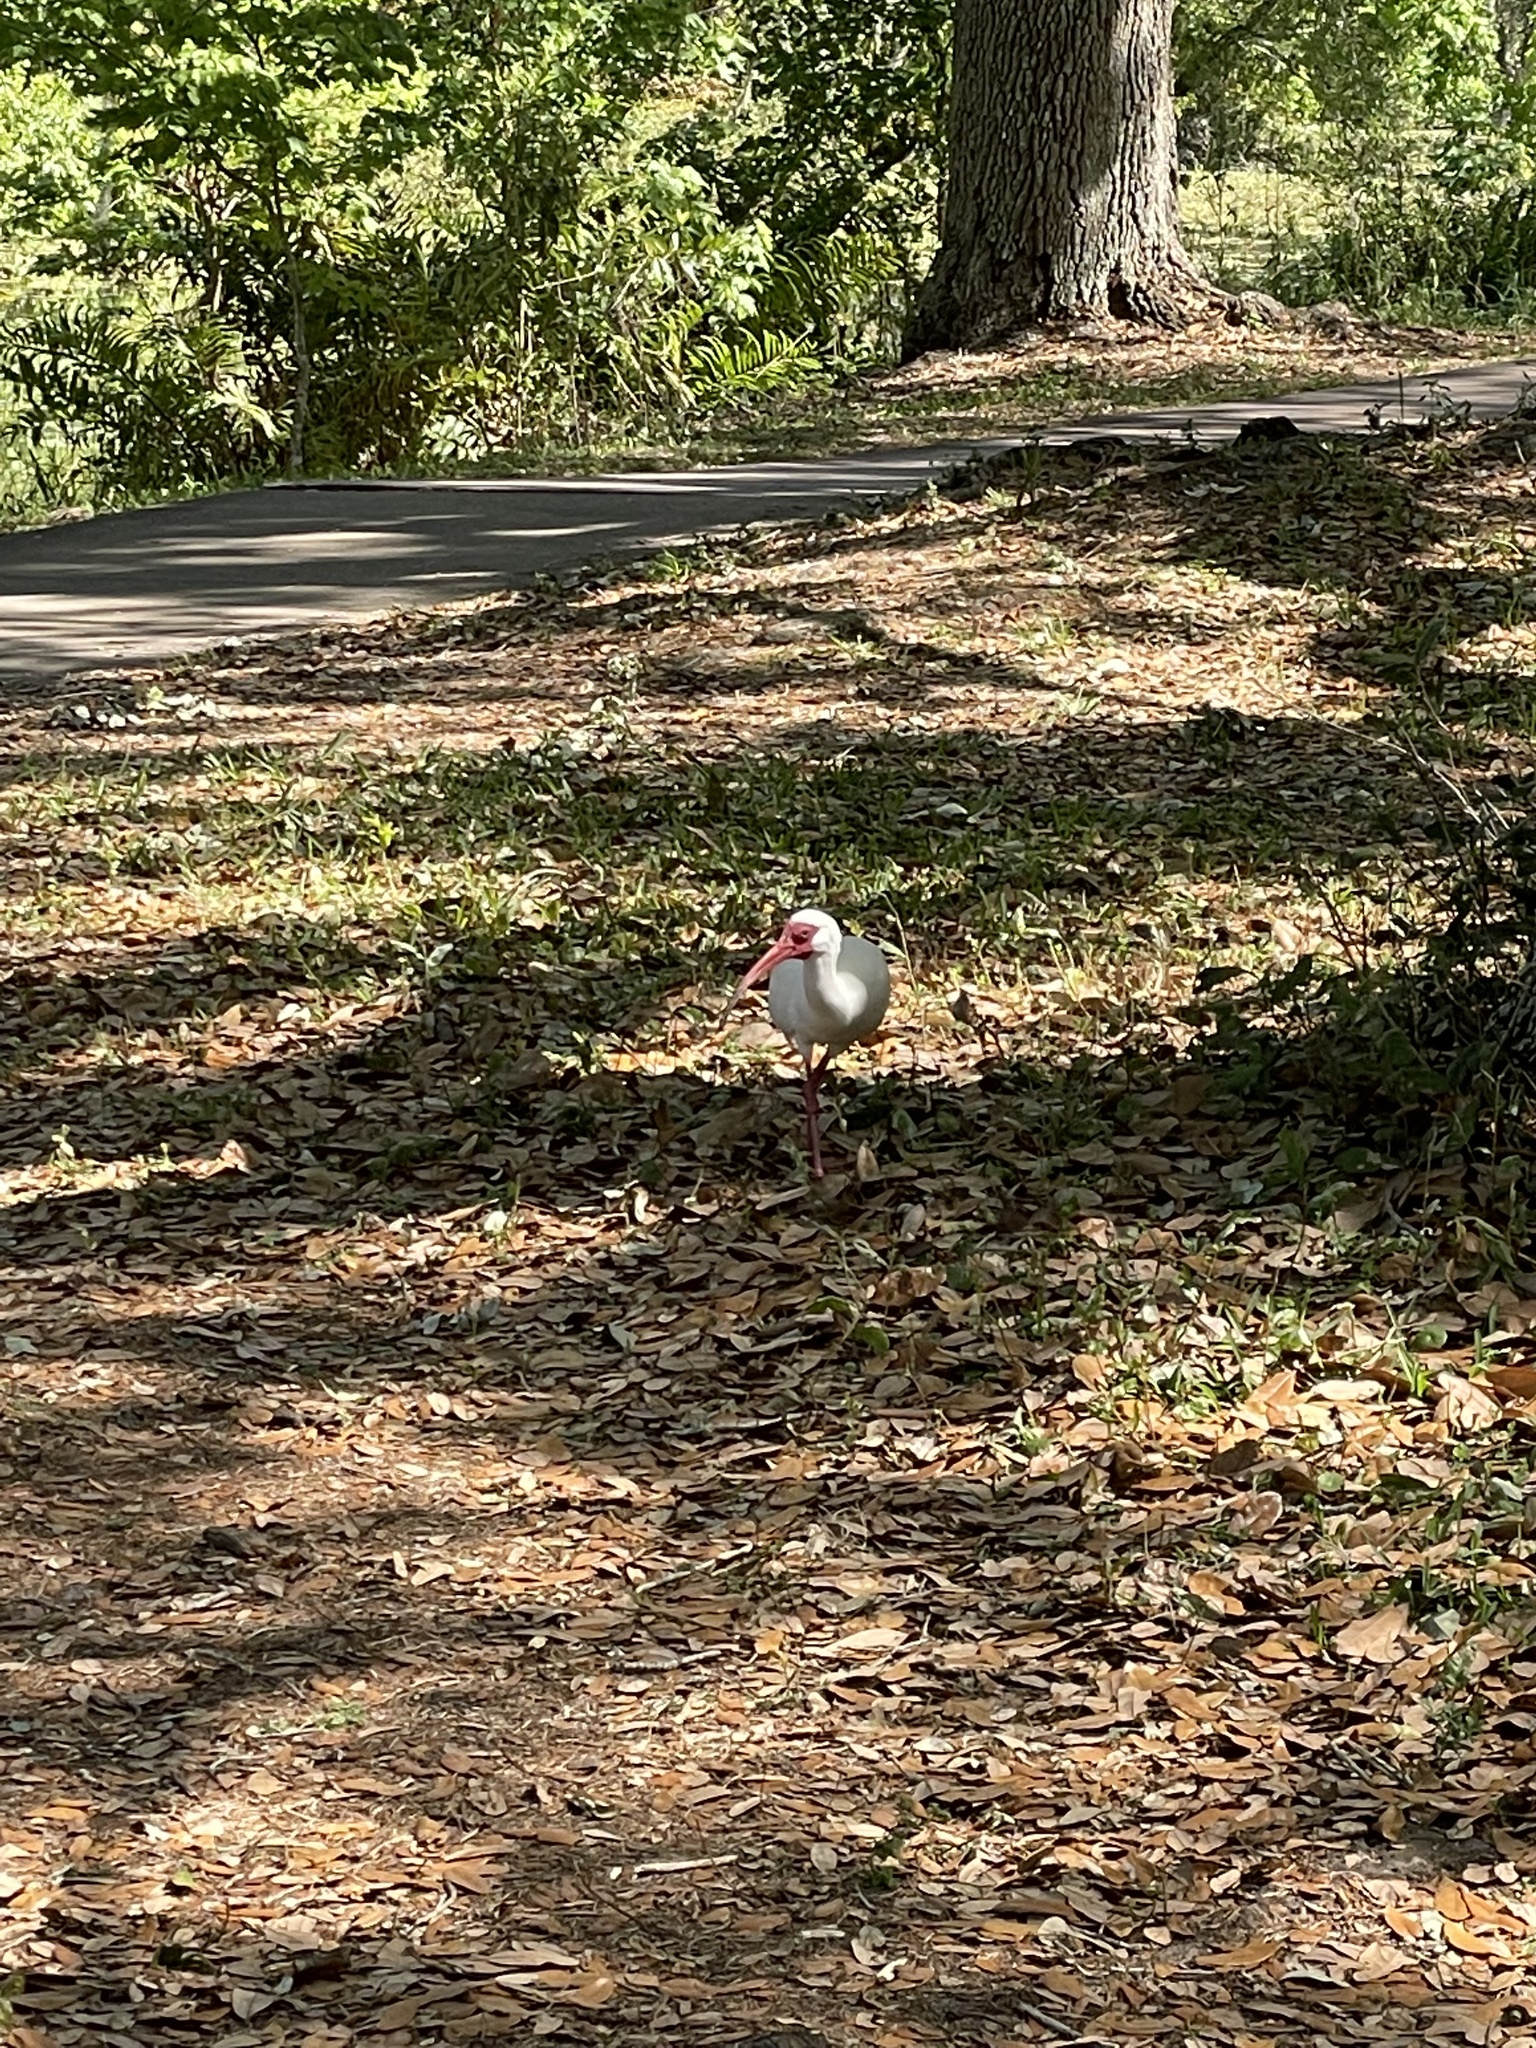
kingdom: Animalia
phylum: Chordata
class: Aves
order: Pelecaniformes
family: Threskiornithidae
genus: Eudocimus
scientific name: Eudocimus albus
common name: White ibis
